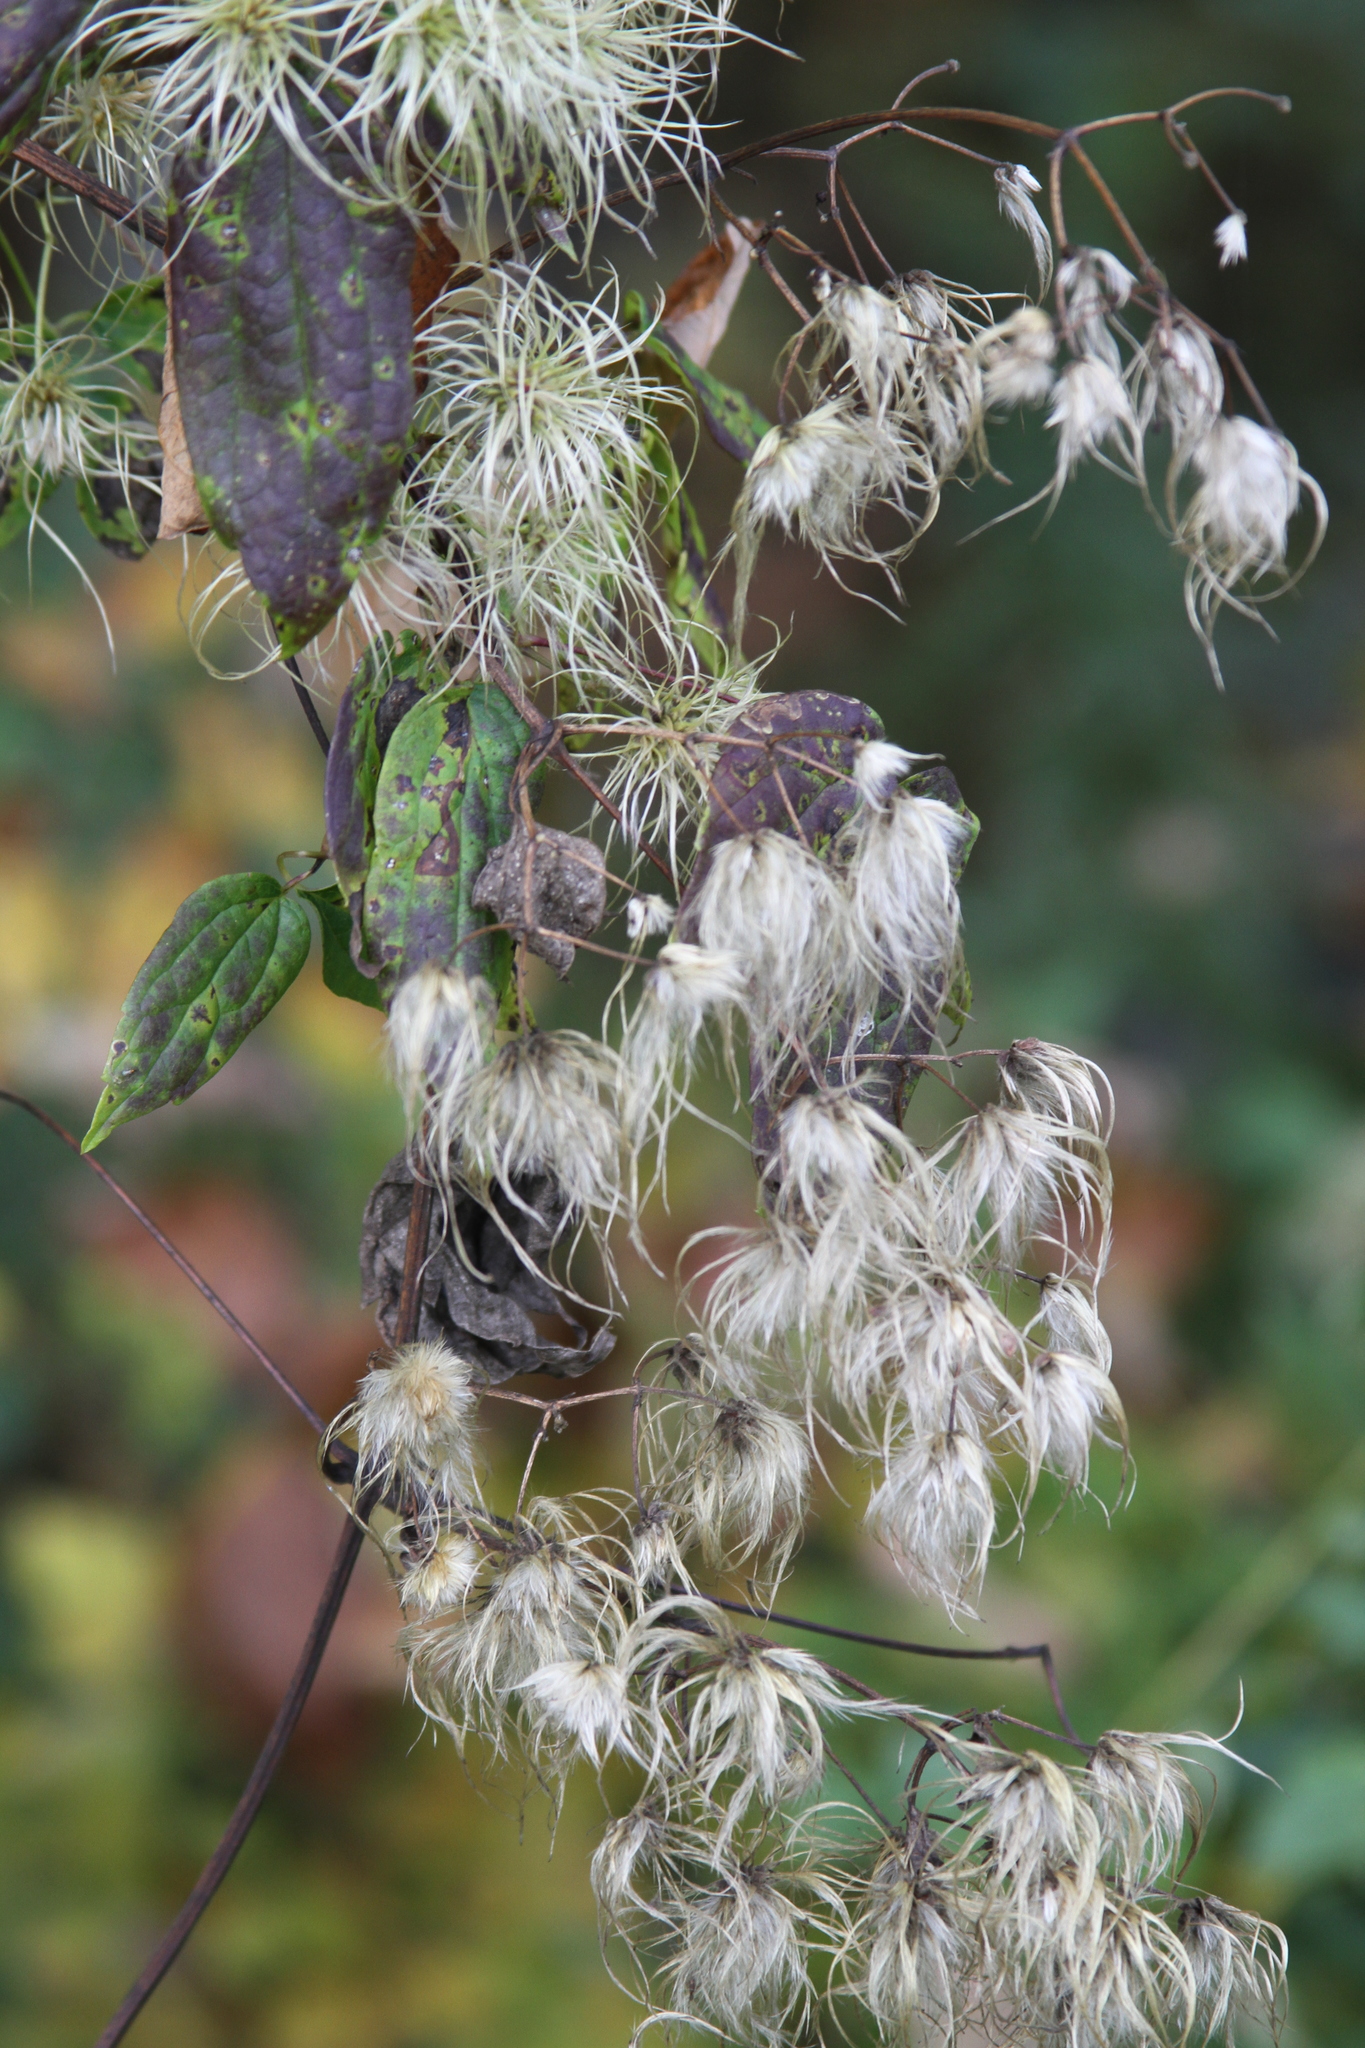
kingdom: Plantae
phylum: Tracheophyta
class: Magnoliopsida
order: Ranunculales
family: Ranunculaceae
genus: Clematis
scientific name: Clematis virginiana
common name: Virgin's-bower
